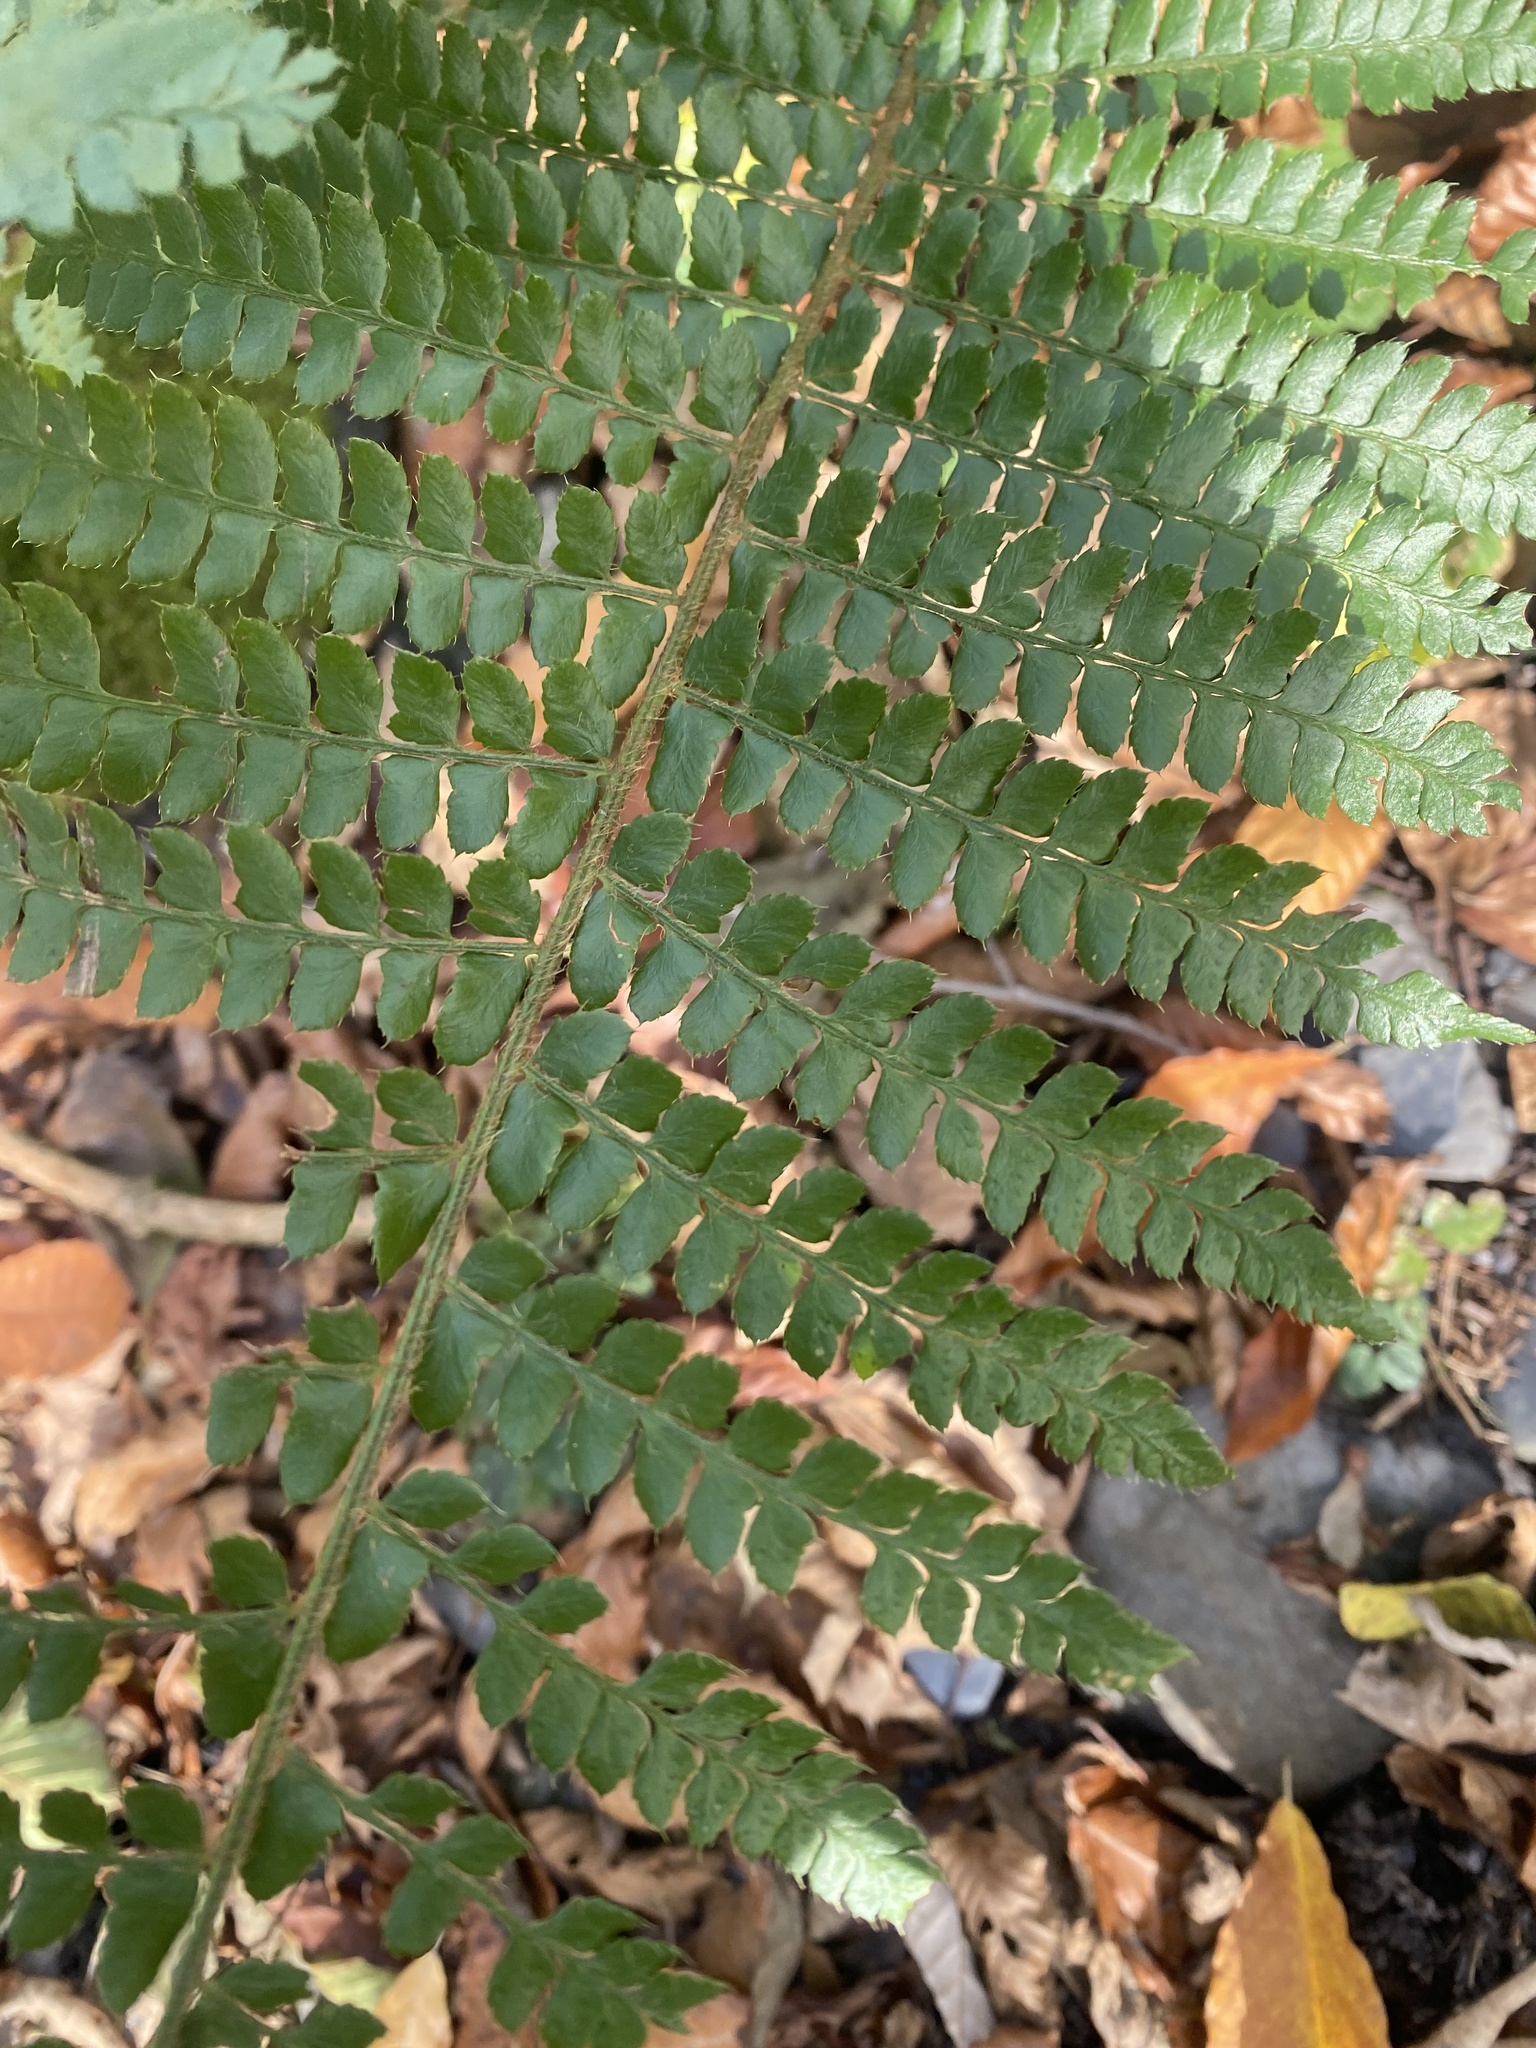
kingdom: Plantae
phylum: Tracheophyta
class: Polypodiopsida
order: Polypodiales
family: Dryopteridaceae
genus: Polystichum
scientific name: Polystichum wirtgenii
